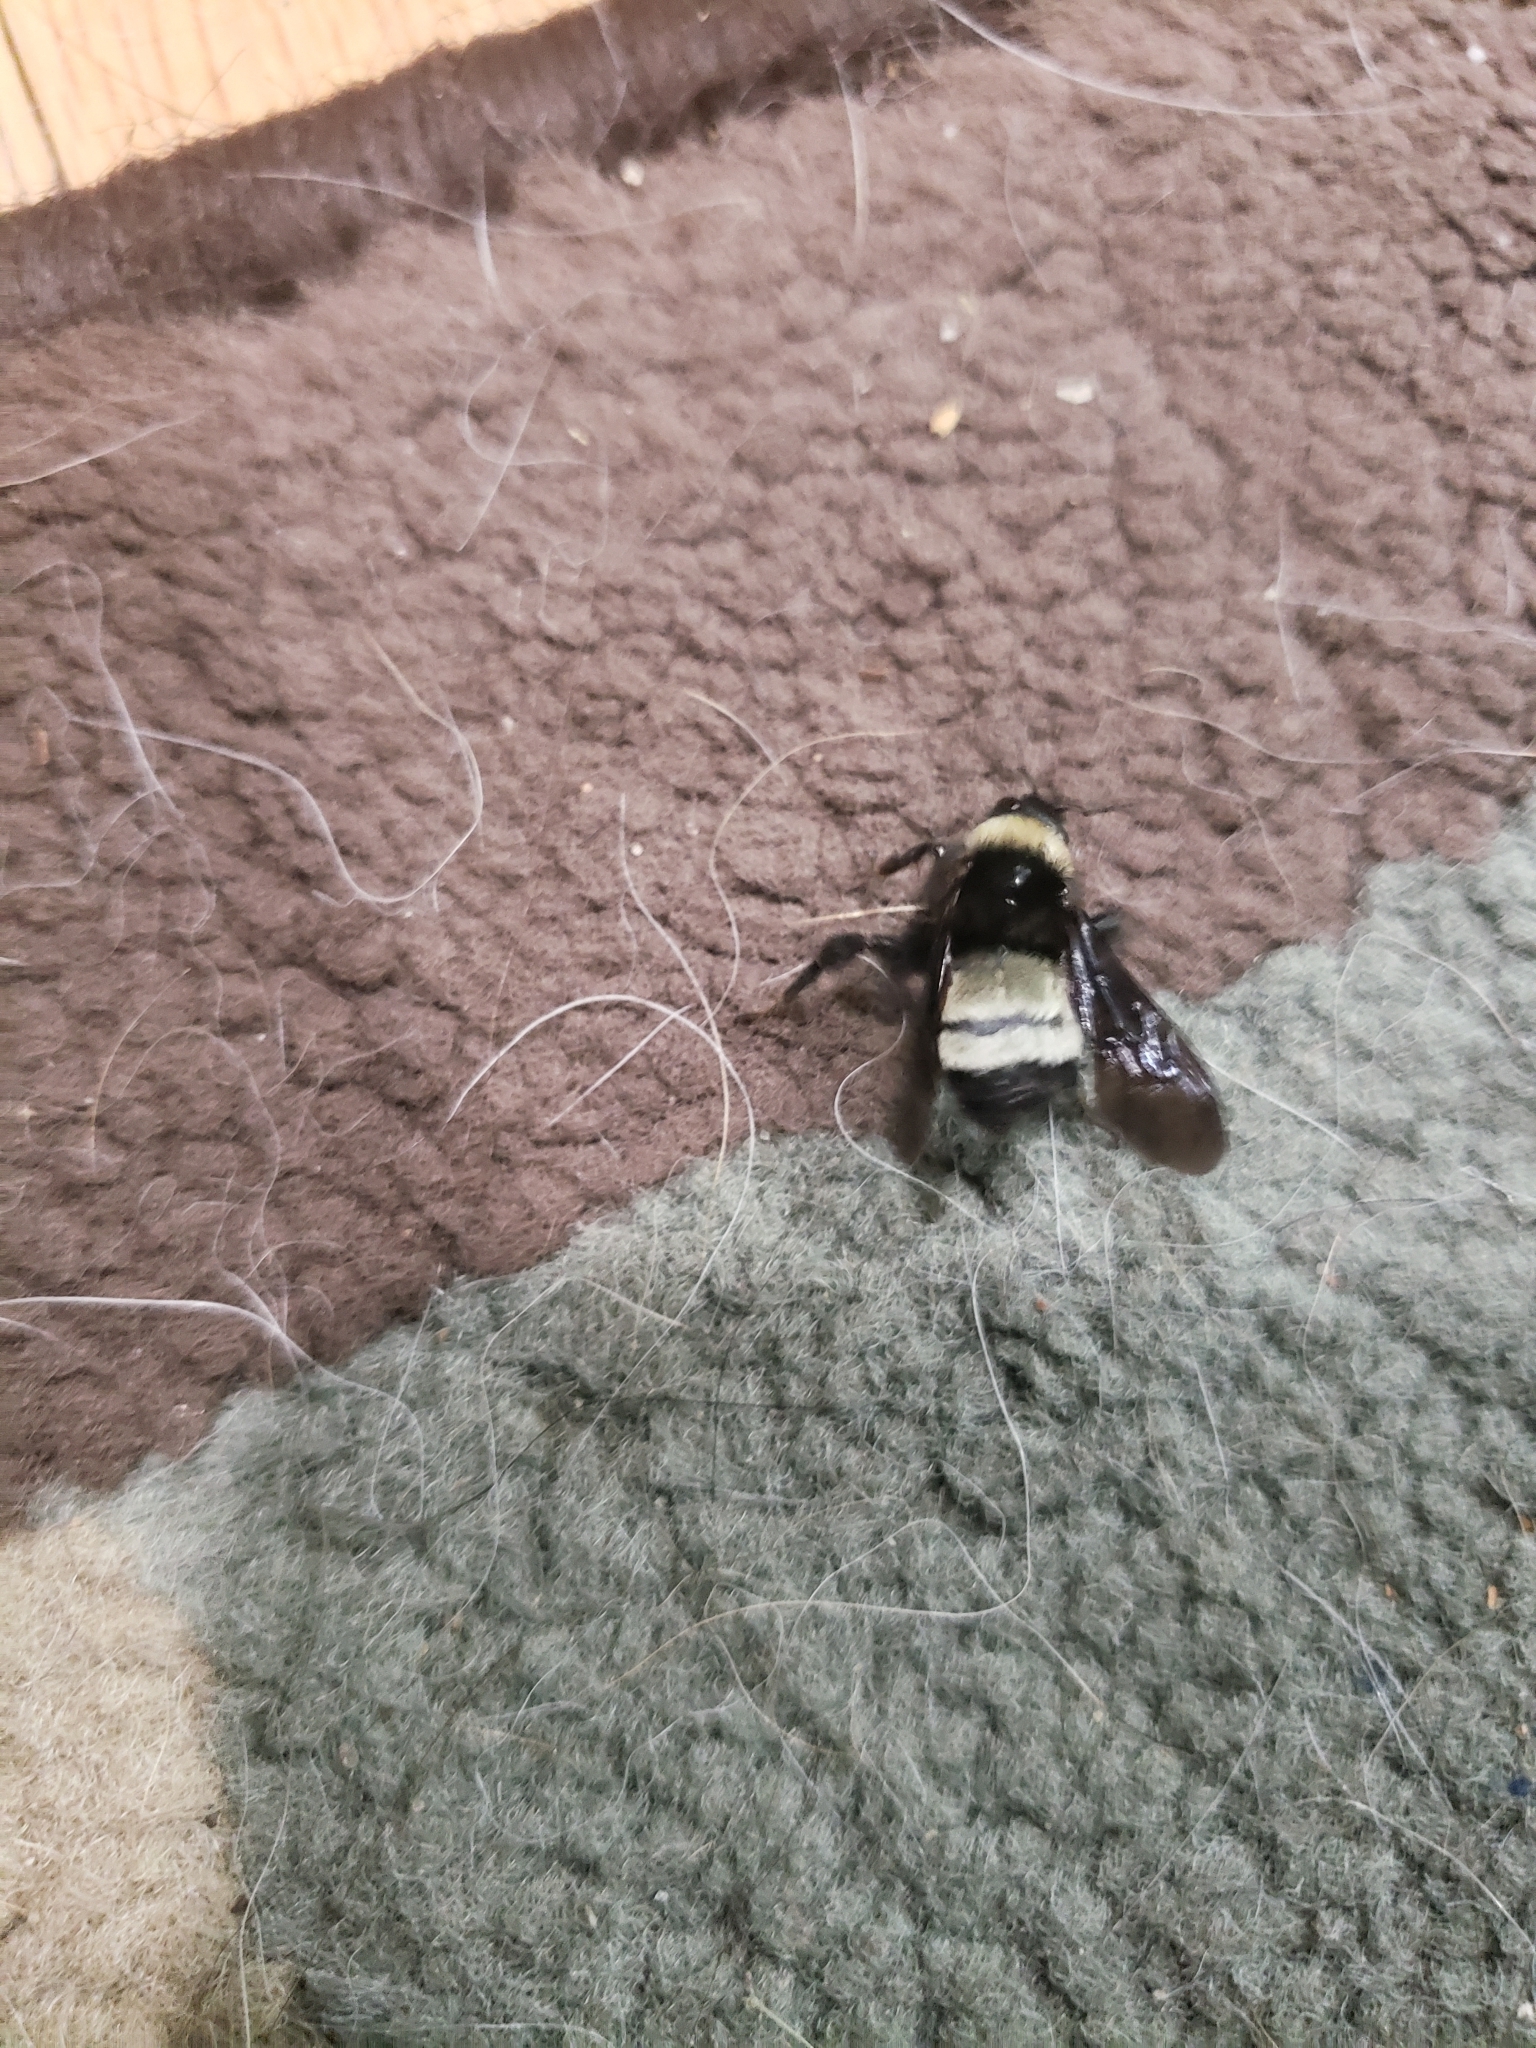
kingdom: Animalia
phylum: Arthropoda
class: Insecta
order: Hymenoptera
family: Apidae
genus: Bombus
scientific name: Bombus pensylvanicus
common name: Bumble bee
